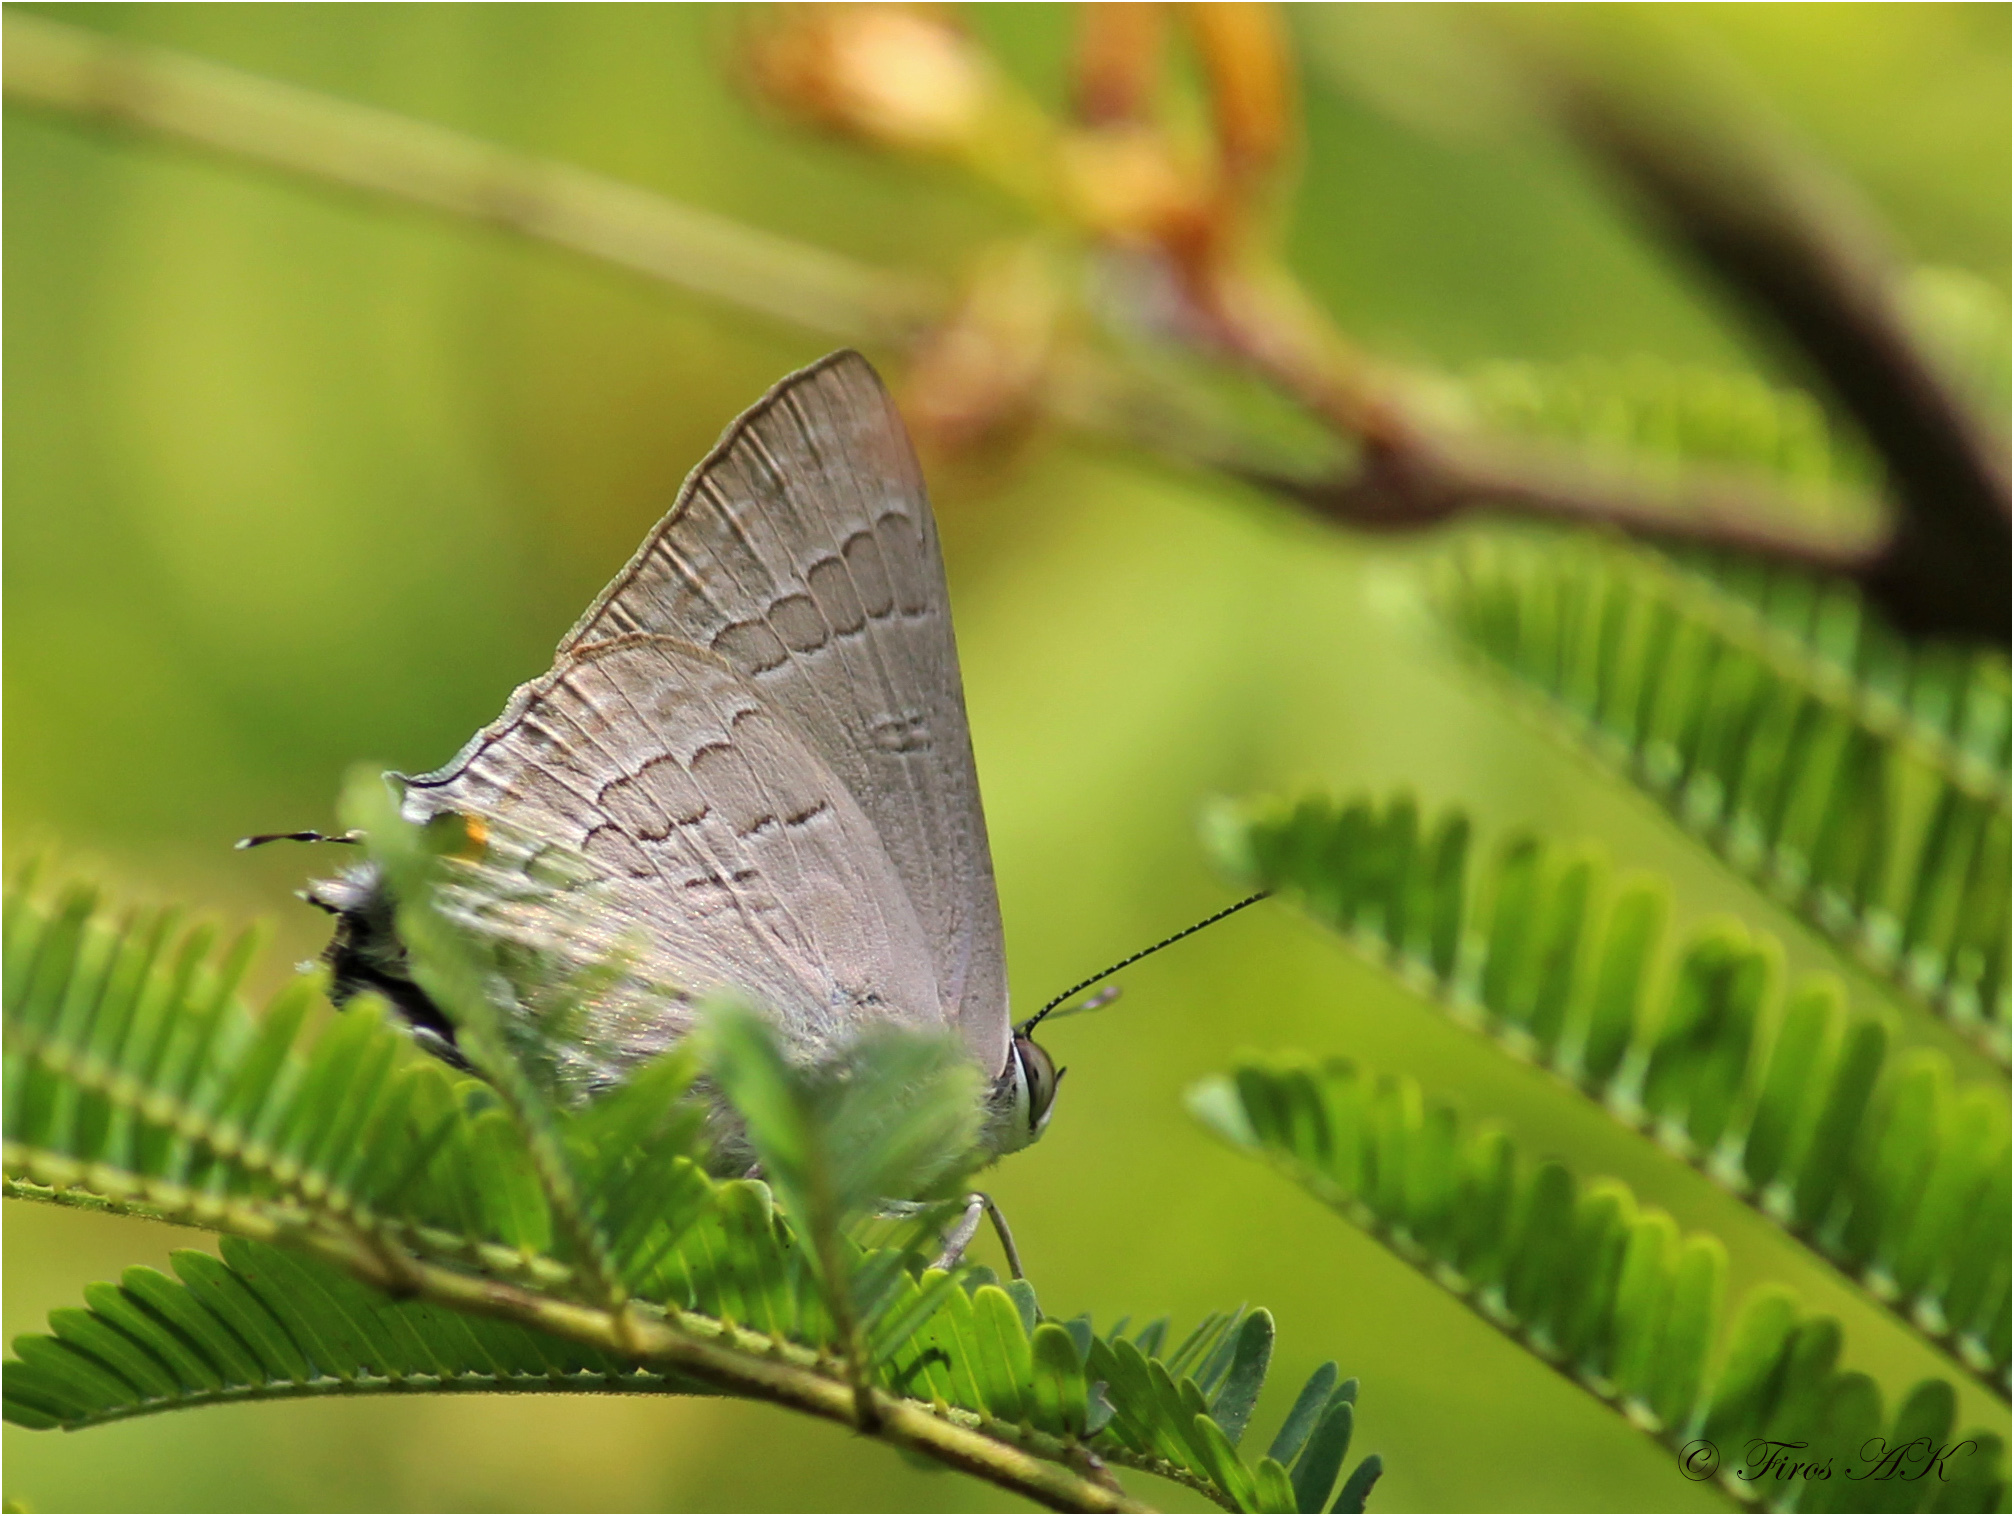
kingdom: Animalia
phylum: Arthropoda
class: Insecta
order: Lepidoptera
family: Lycaenidae
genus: Deudorix
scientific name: Deudorix
